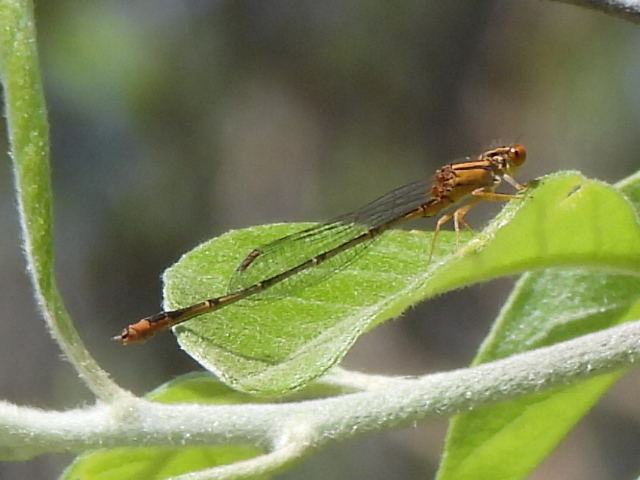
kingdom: Animalia
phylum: Arthropoda
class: Insecta
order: Odonata
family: Coenagrionidae
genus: Enallagma
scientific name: Enallagma signatum
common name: Orange bluet
